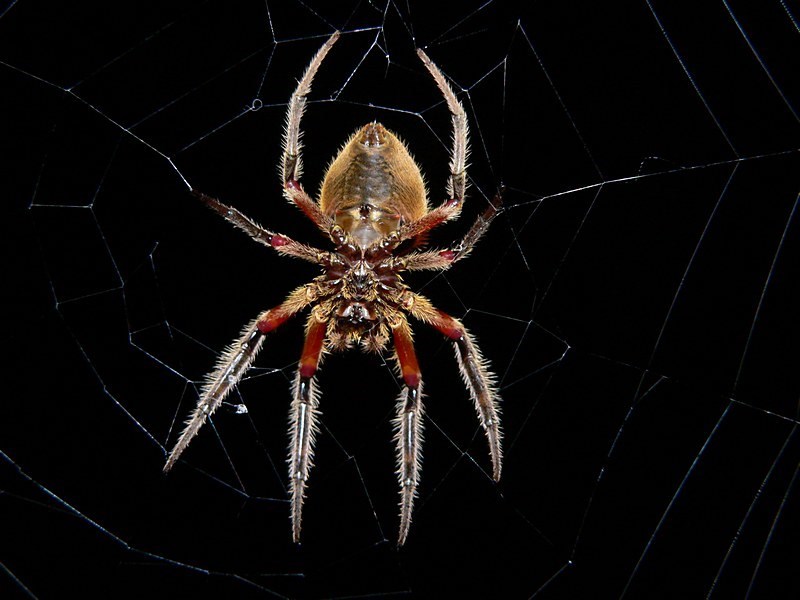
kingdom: Animalia
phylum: Arthropoda
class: Arachnida
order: Araneae
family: Araneidae
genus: Hortophora
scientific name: Hortophora transmarina
